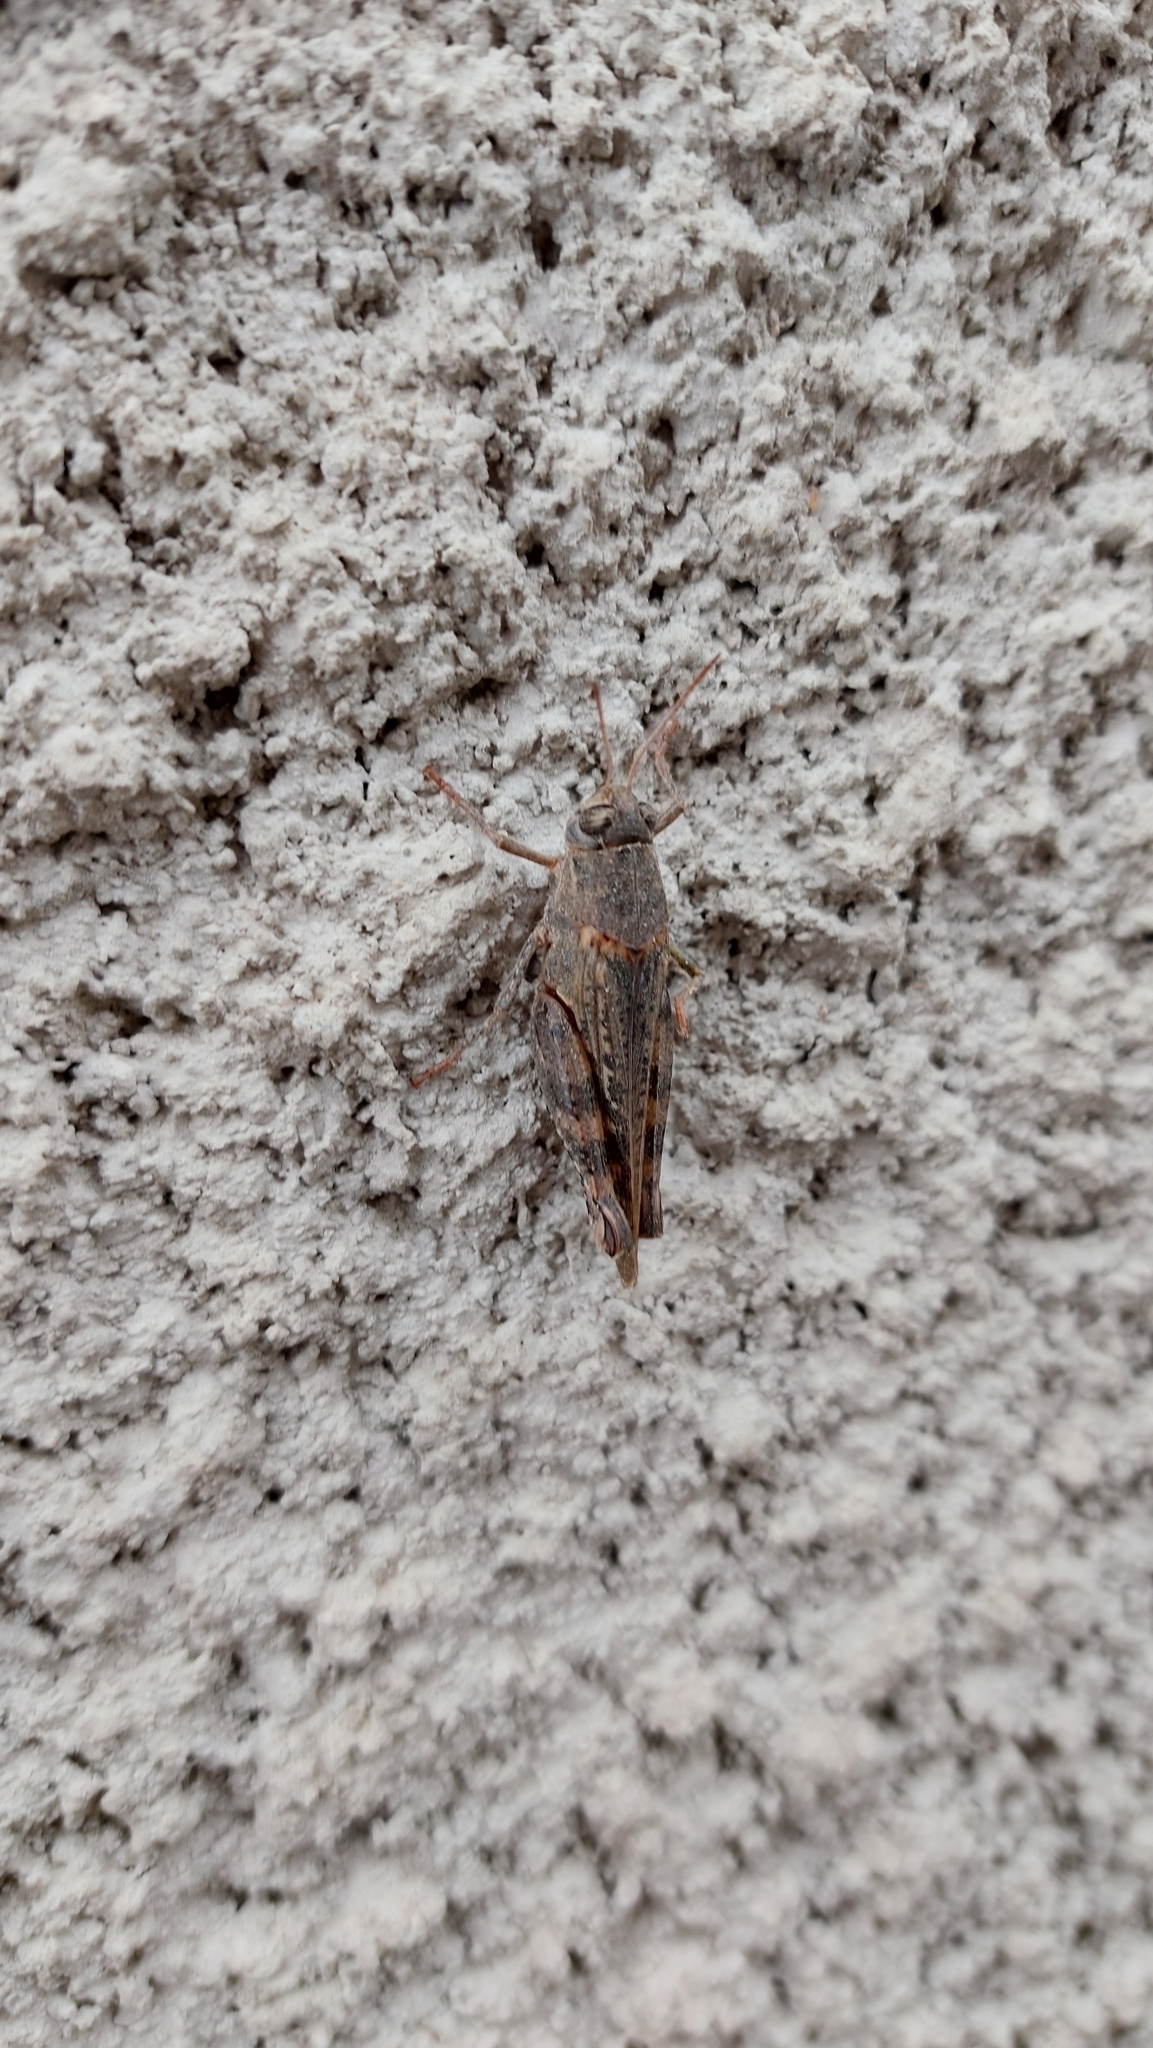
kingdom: Animalia
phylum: Arthropoda
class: Insecta
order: Orthoptera
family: Acrididae
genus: Calliptamus
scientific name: Calliptamus italicus
